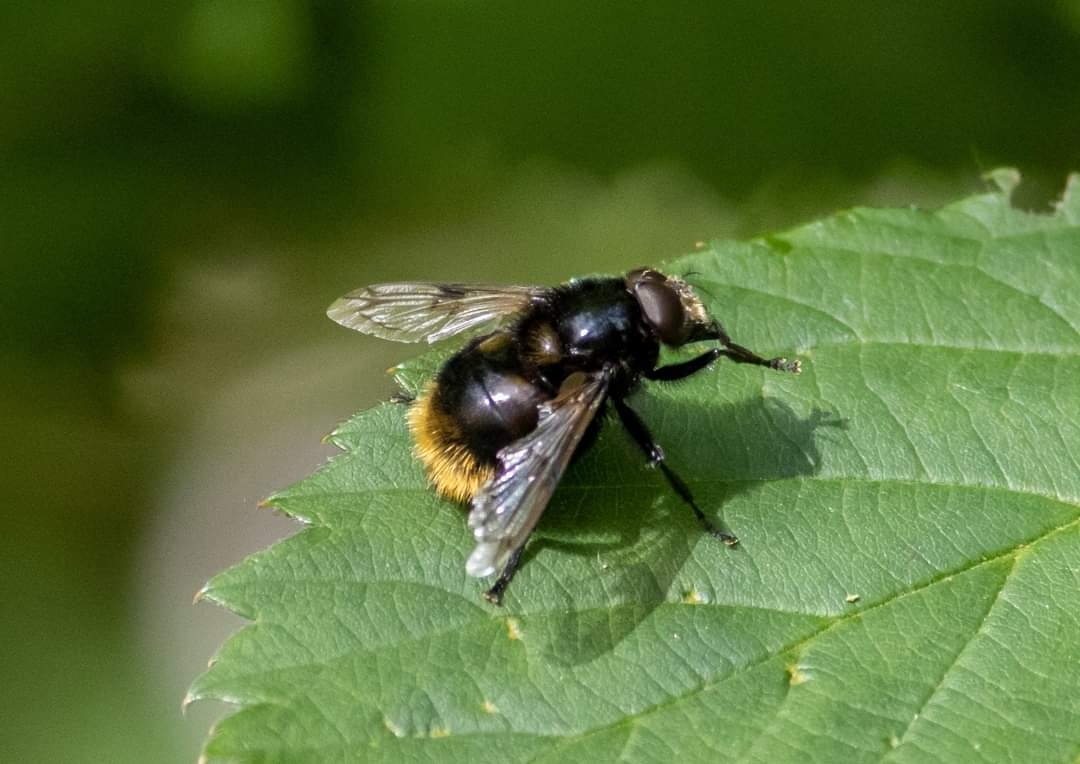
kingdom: Animalia
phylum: Arthropoda
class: Insecta
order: Diptera
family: Syrphidae
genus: Volucella
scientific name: Volucella bombylans
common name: Bumble bee hover fly
